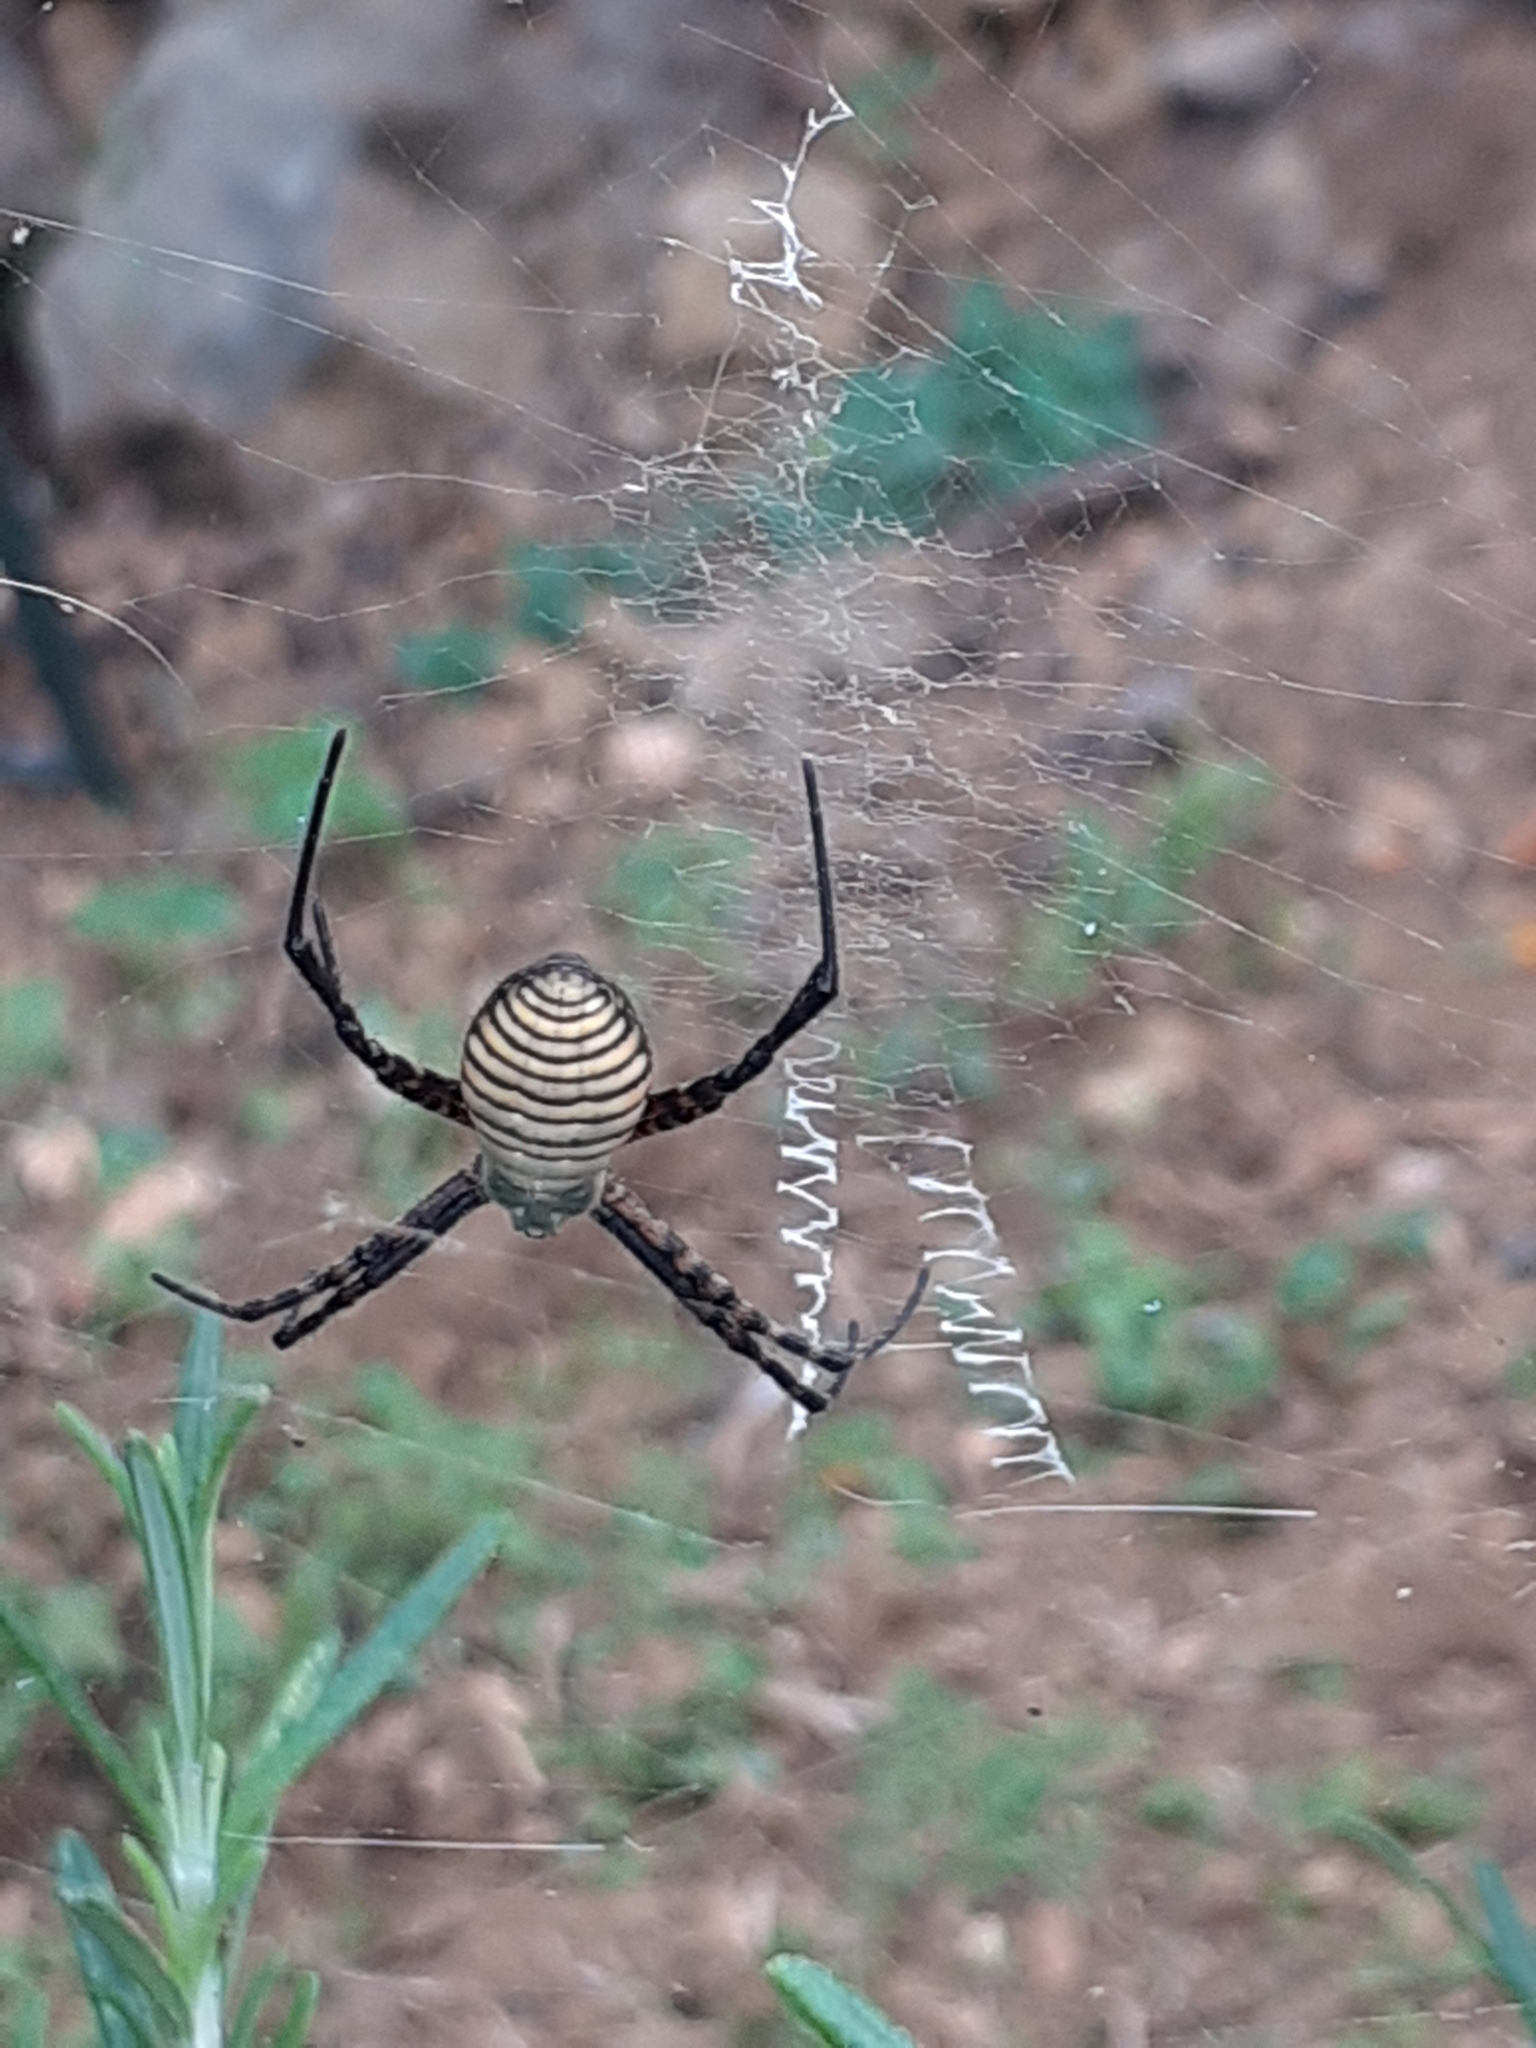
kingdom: Animalia
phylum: Arthropoda
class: Arachnida
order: Araneae
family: Araneidae
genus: Argiope
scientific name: Argiope trifasciata
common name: Banded garden spider
